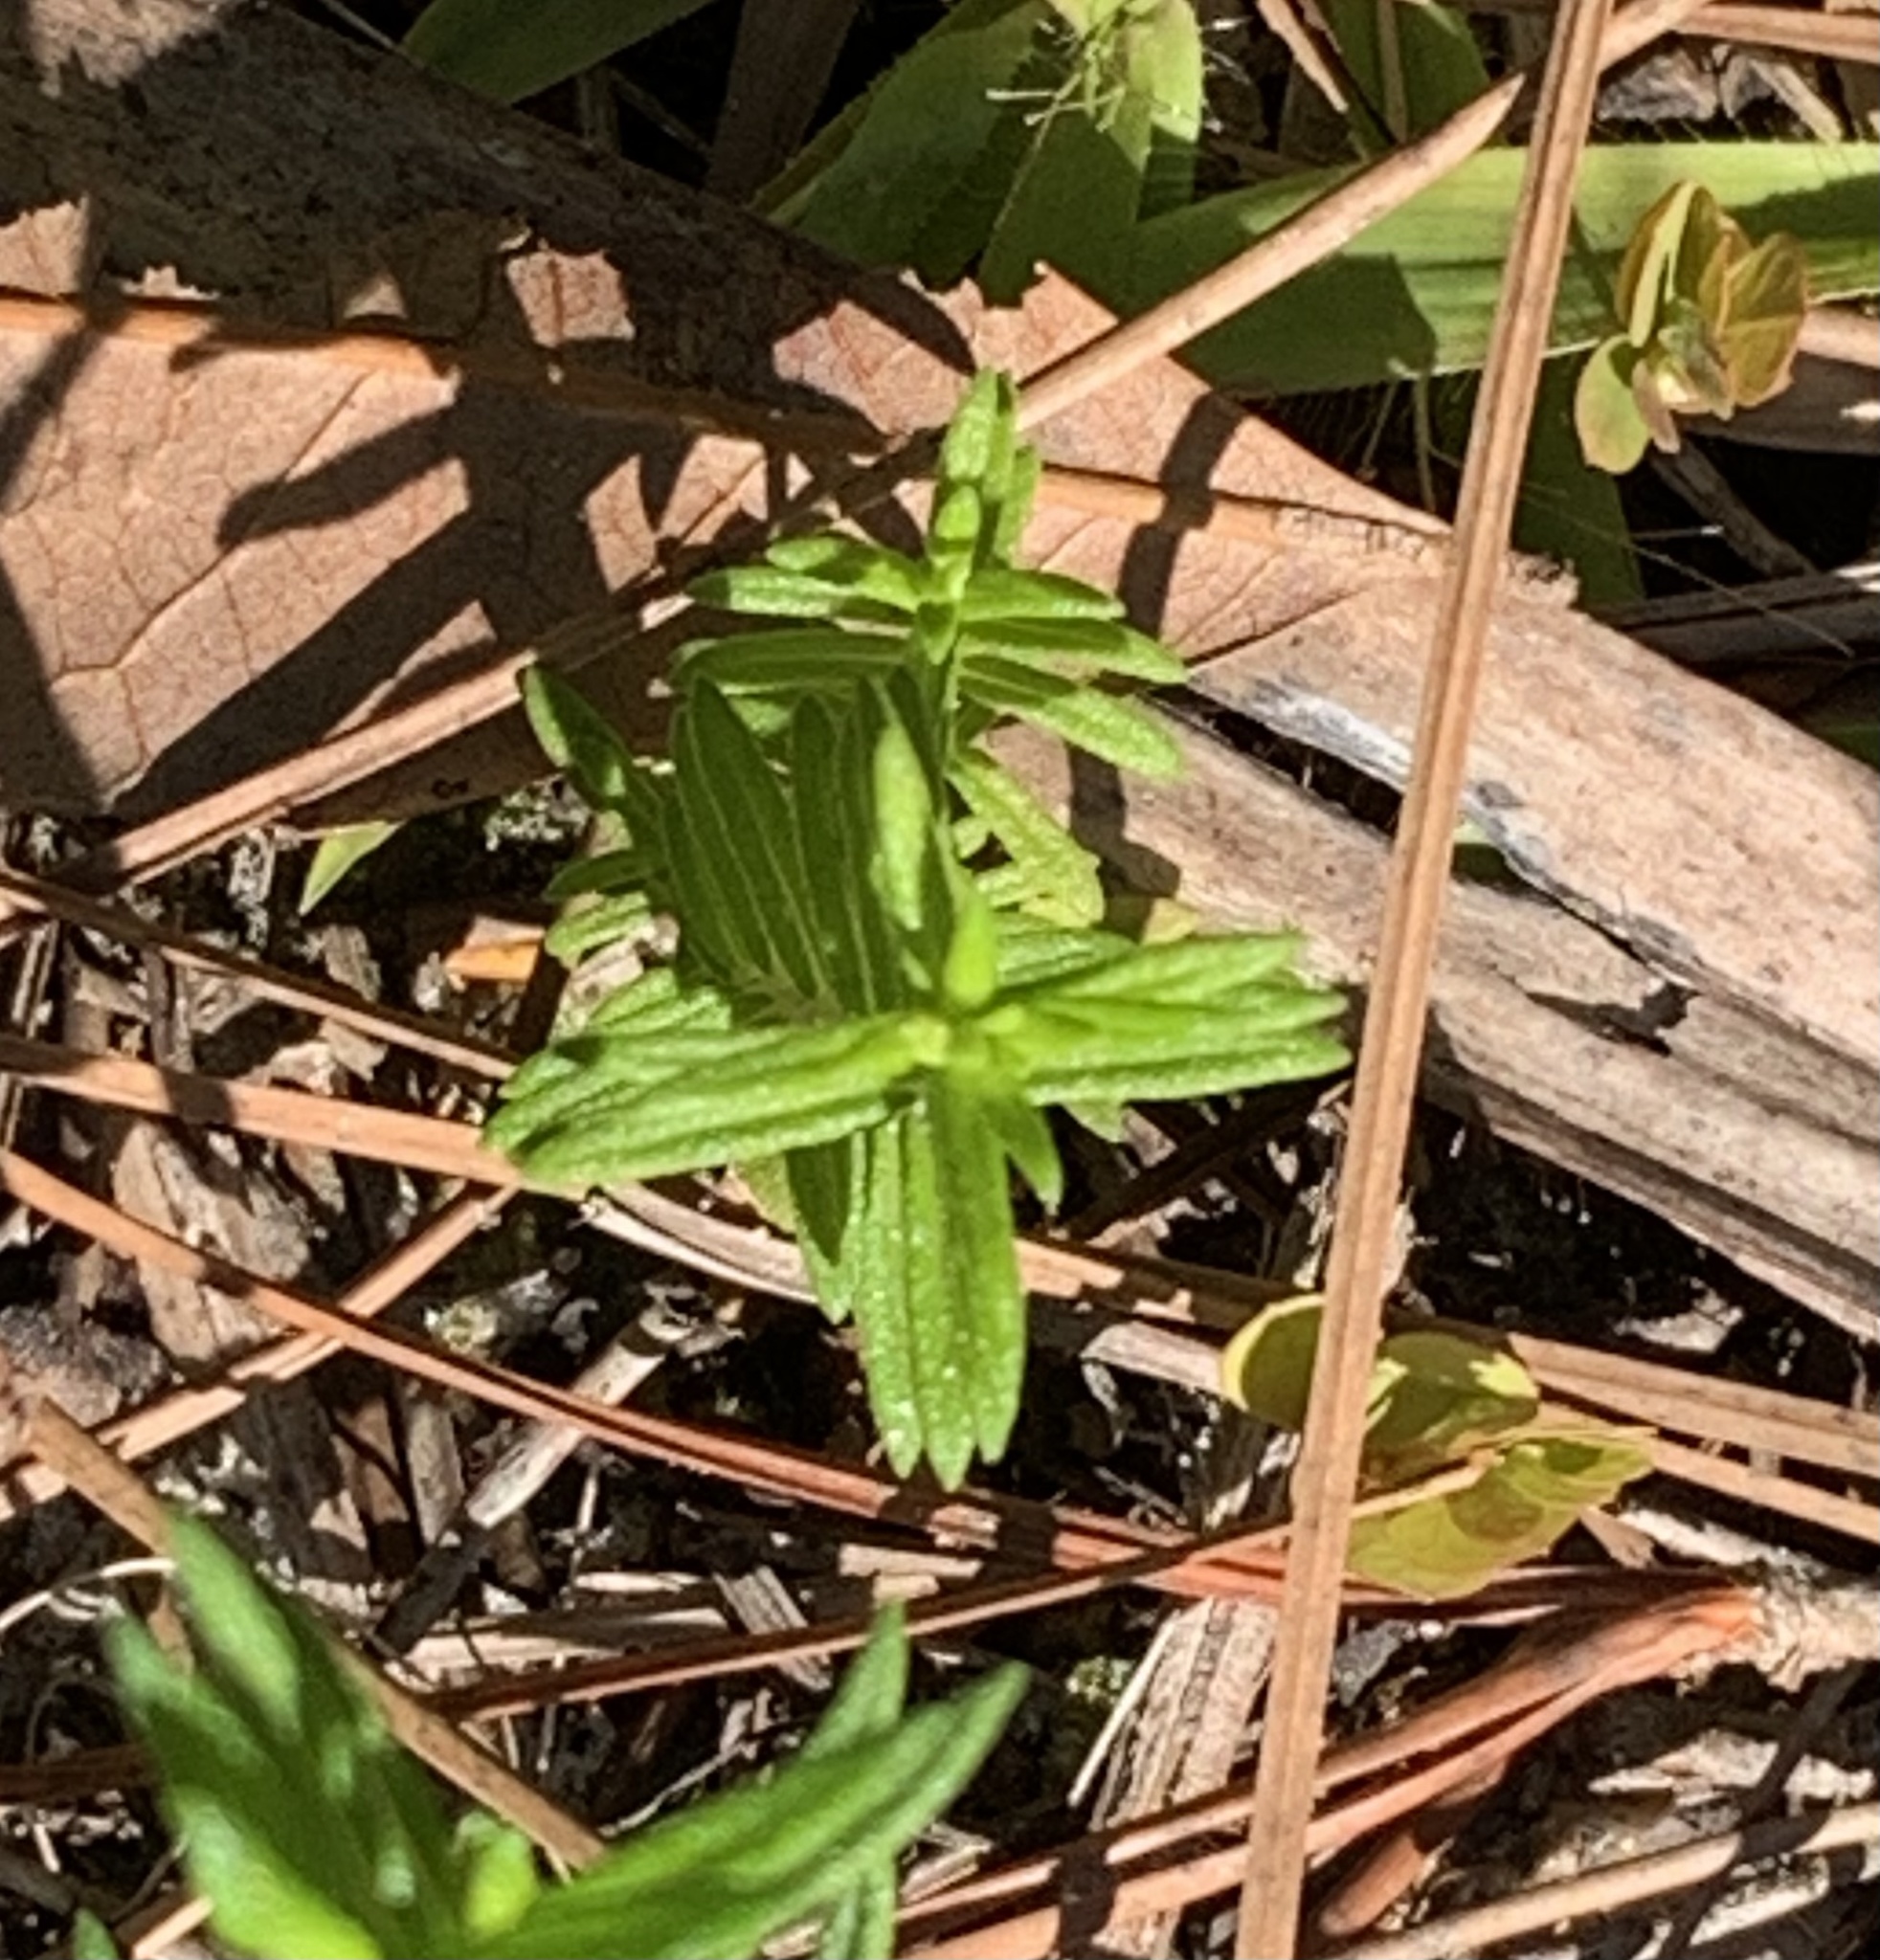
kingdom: Plantae
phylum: Tracheophyta
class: Magnoliopsida
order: Lamiales
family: Lamiaceae
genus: Piloblephis
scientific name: Piloblephis rigida
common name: Wild pennyroyal
